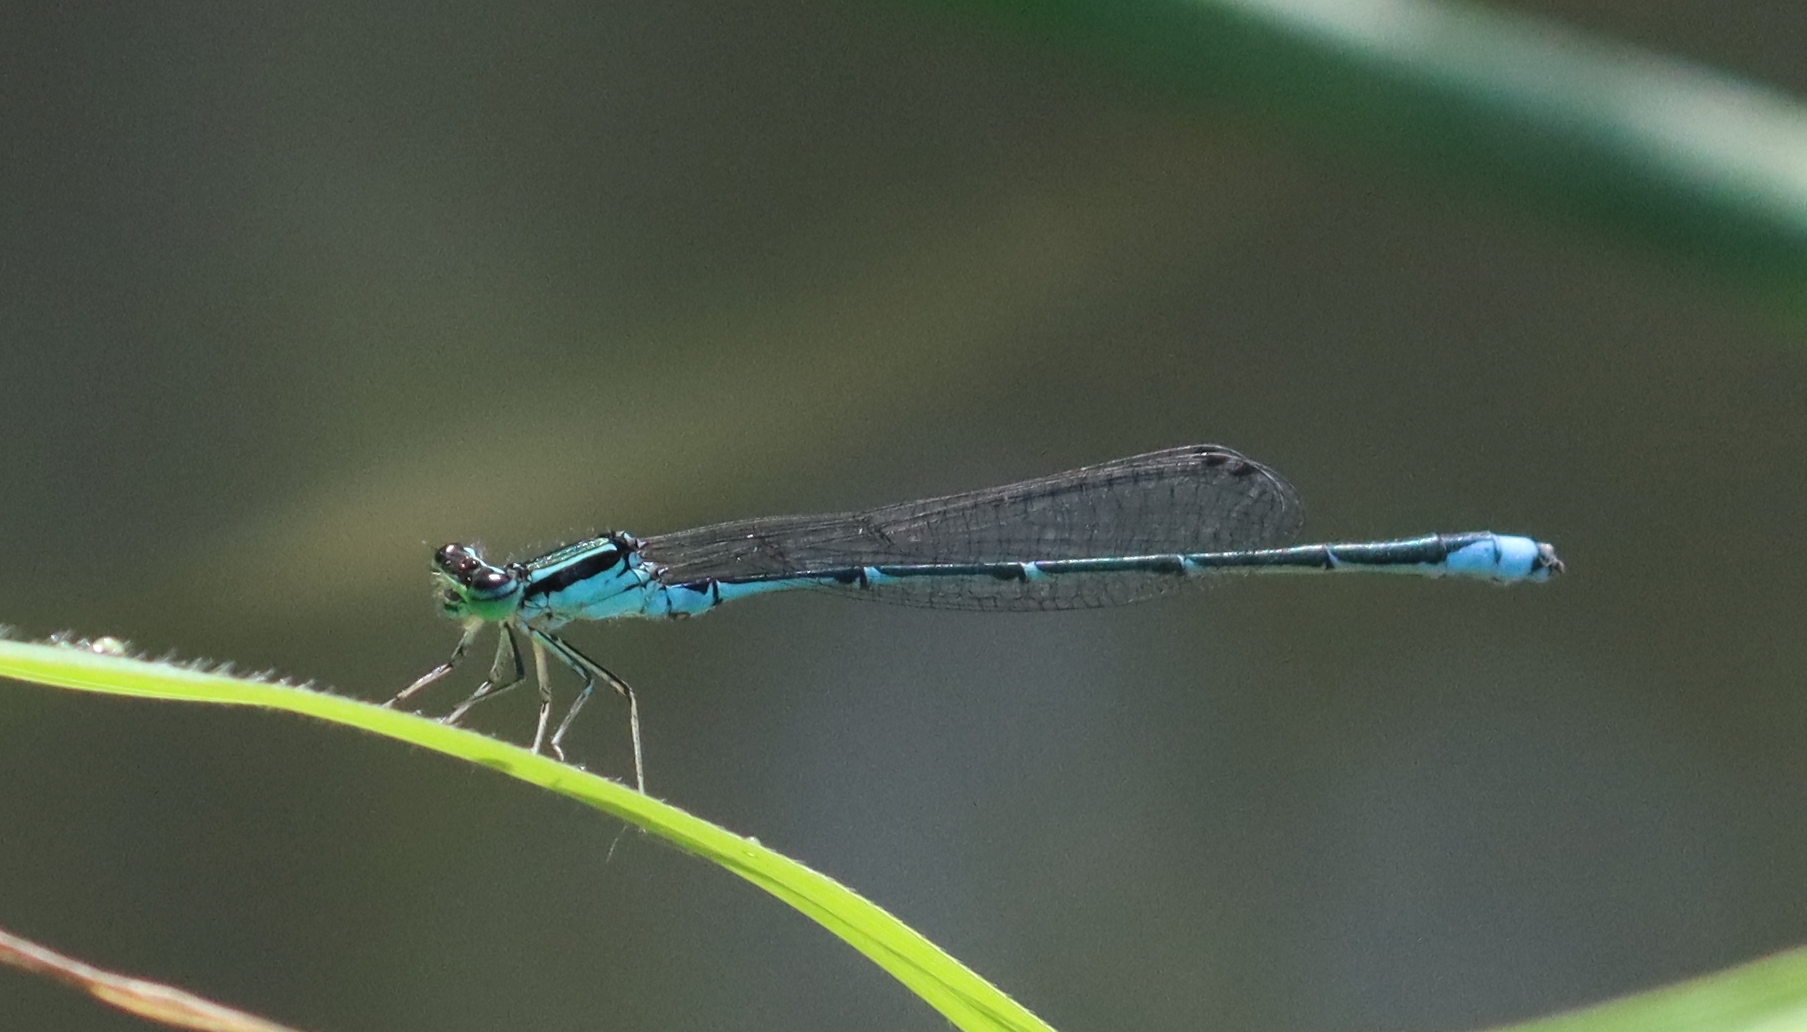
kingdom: Animalia
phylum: Arthropoda
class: Insecta
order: Odonata
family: Coenagrionidae
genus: Enallagma
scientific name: Enallagma exsulans
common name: Stream bluet
